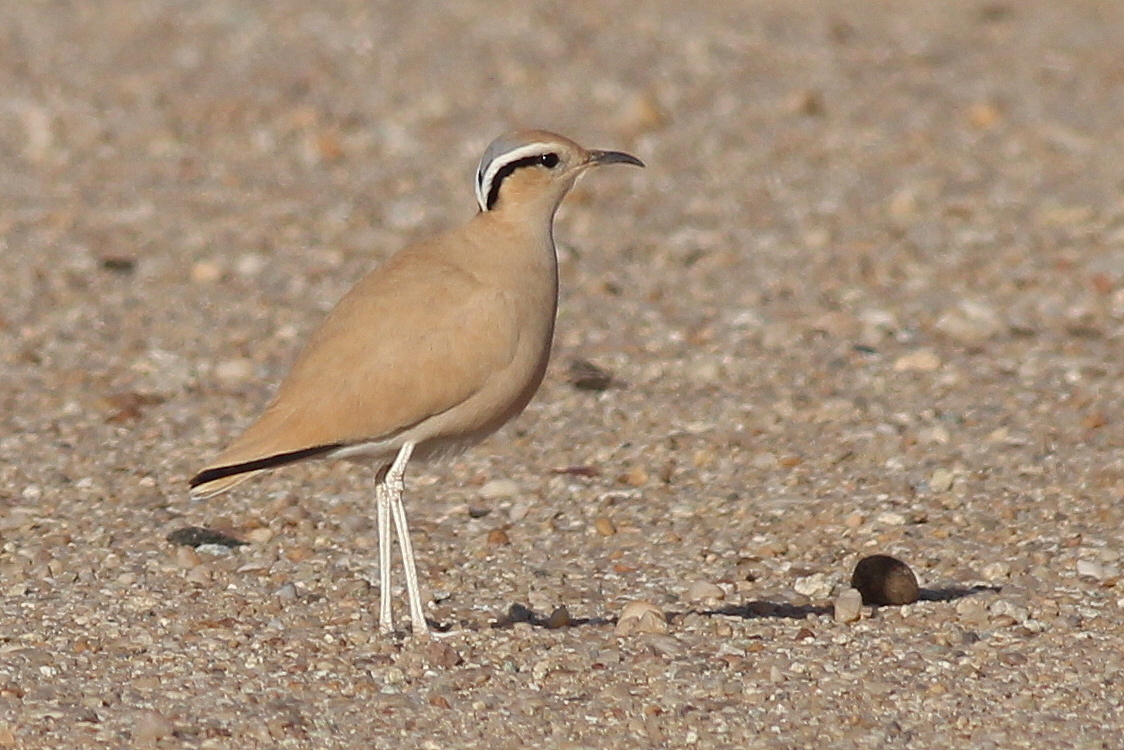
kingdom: Animalia
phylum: Chordata
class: Aves
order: Charadriiformes
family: Glareolidae
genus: Cursorius
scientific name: Cursorius cursor
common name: Cream-colored courser
